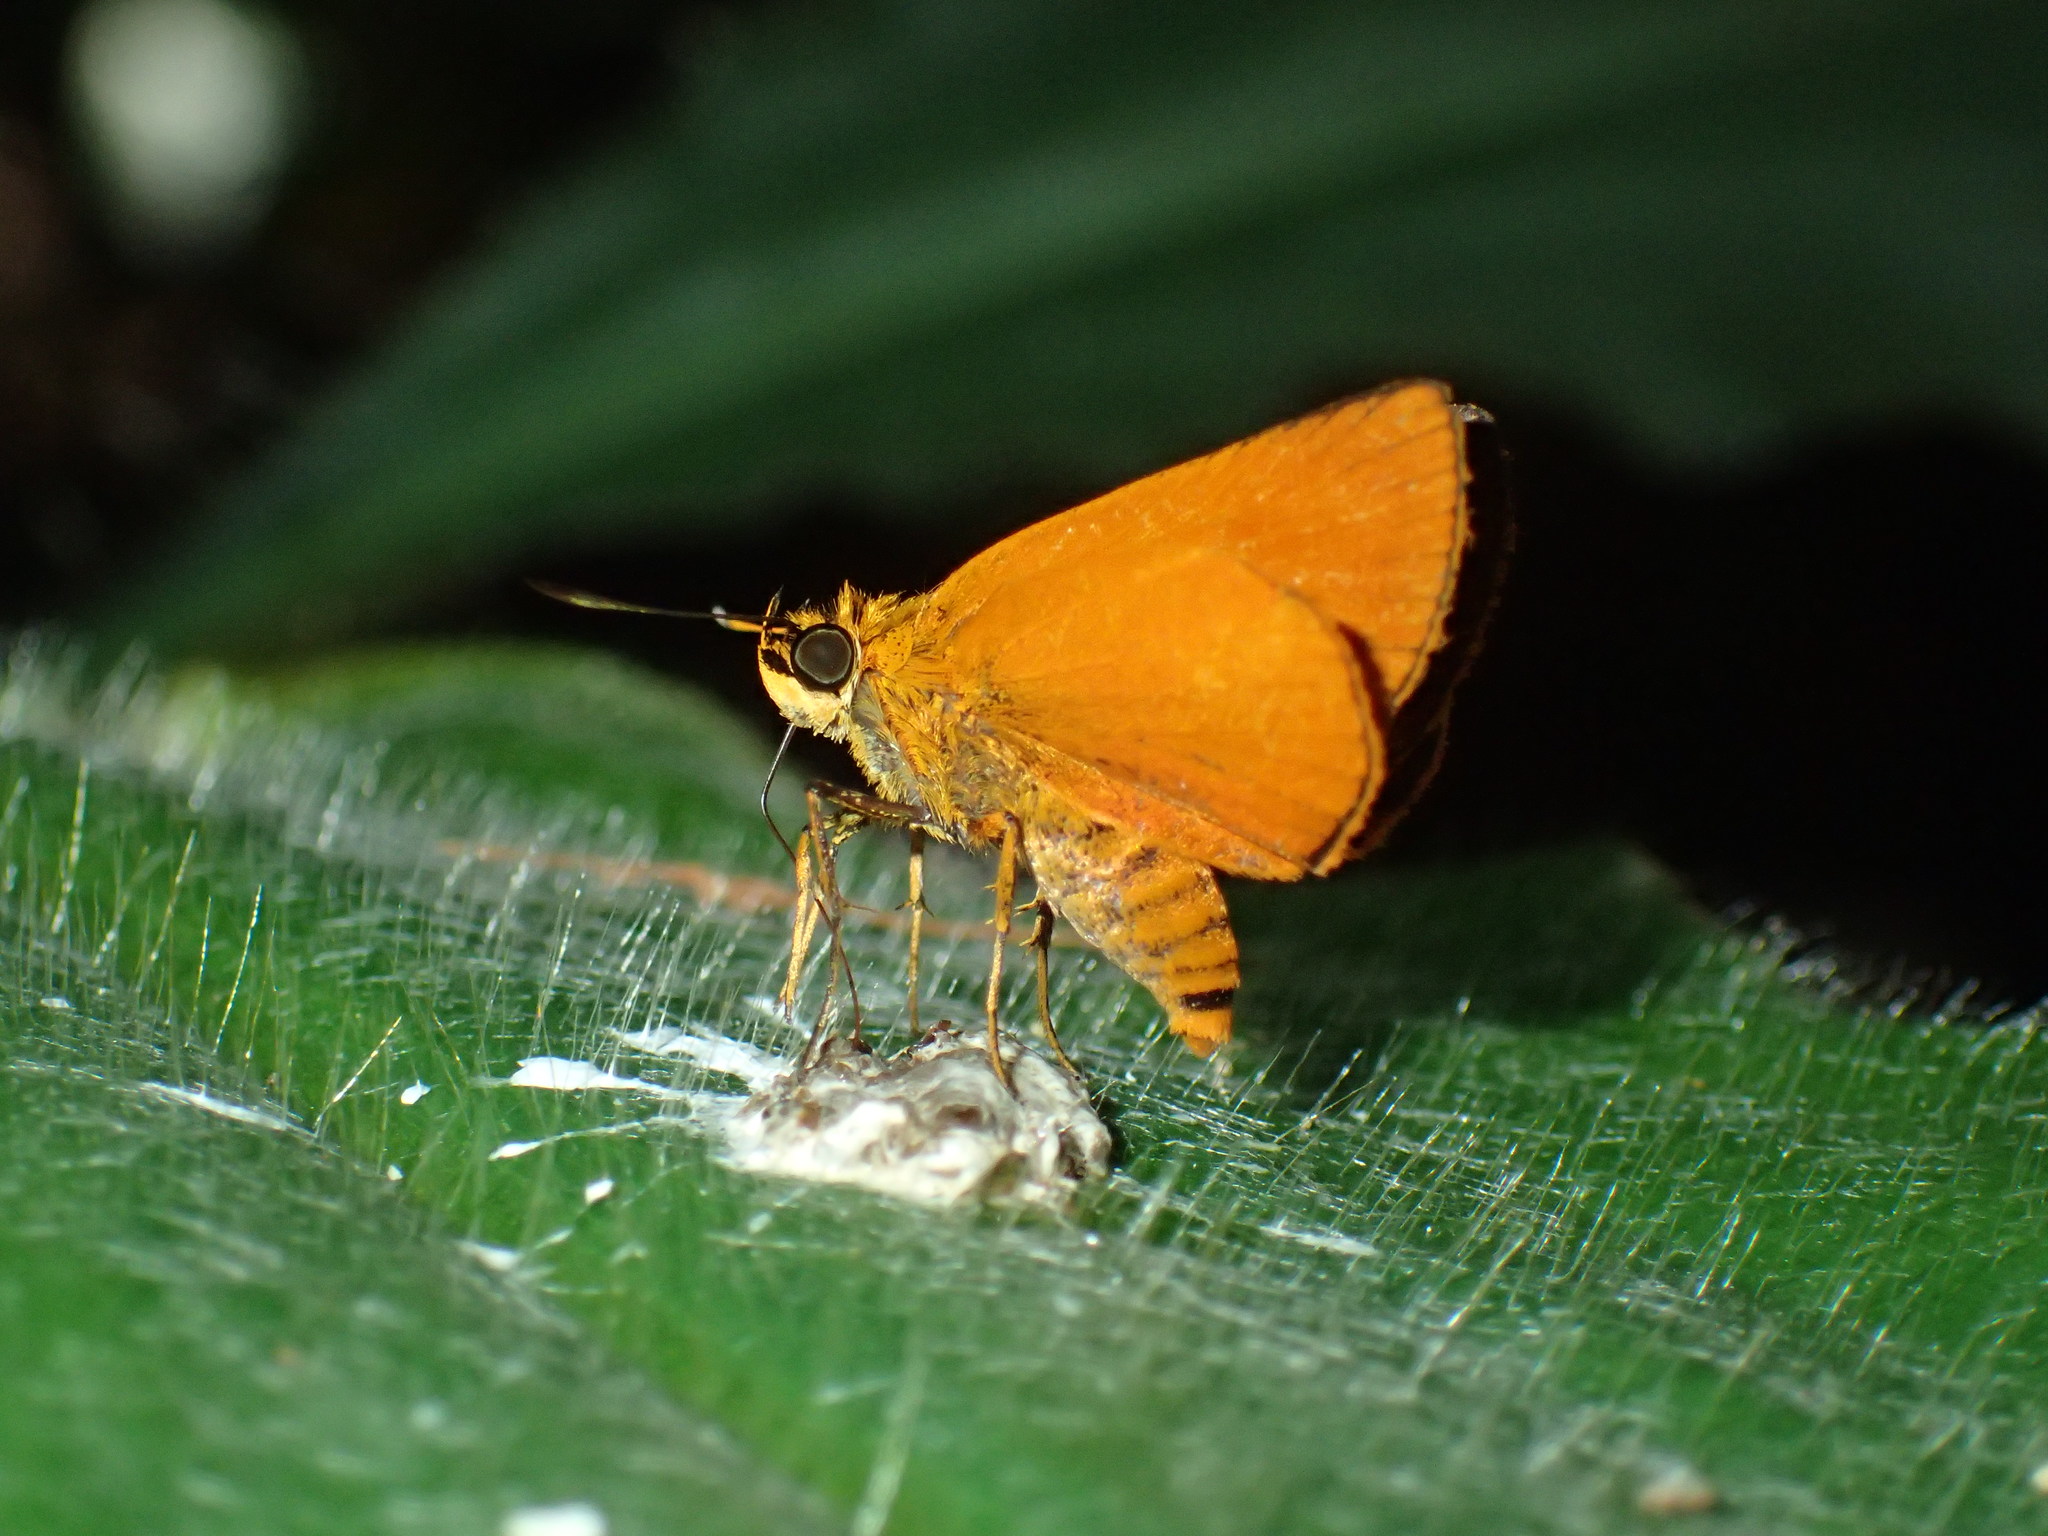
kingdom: Animalia
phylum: Arthropoda
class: Insecta
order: Lepidoptera
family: Hesperiidae
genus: Teniorhinus
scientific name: Teniorhinus ignita
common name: Fiery small fox
